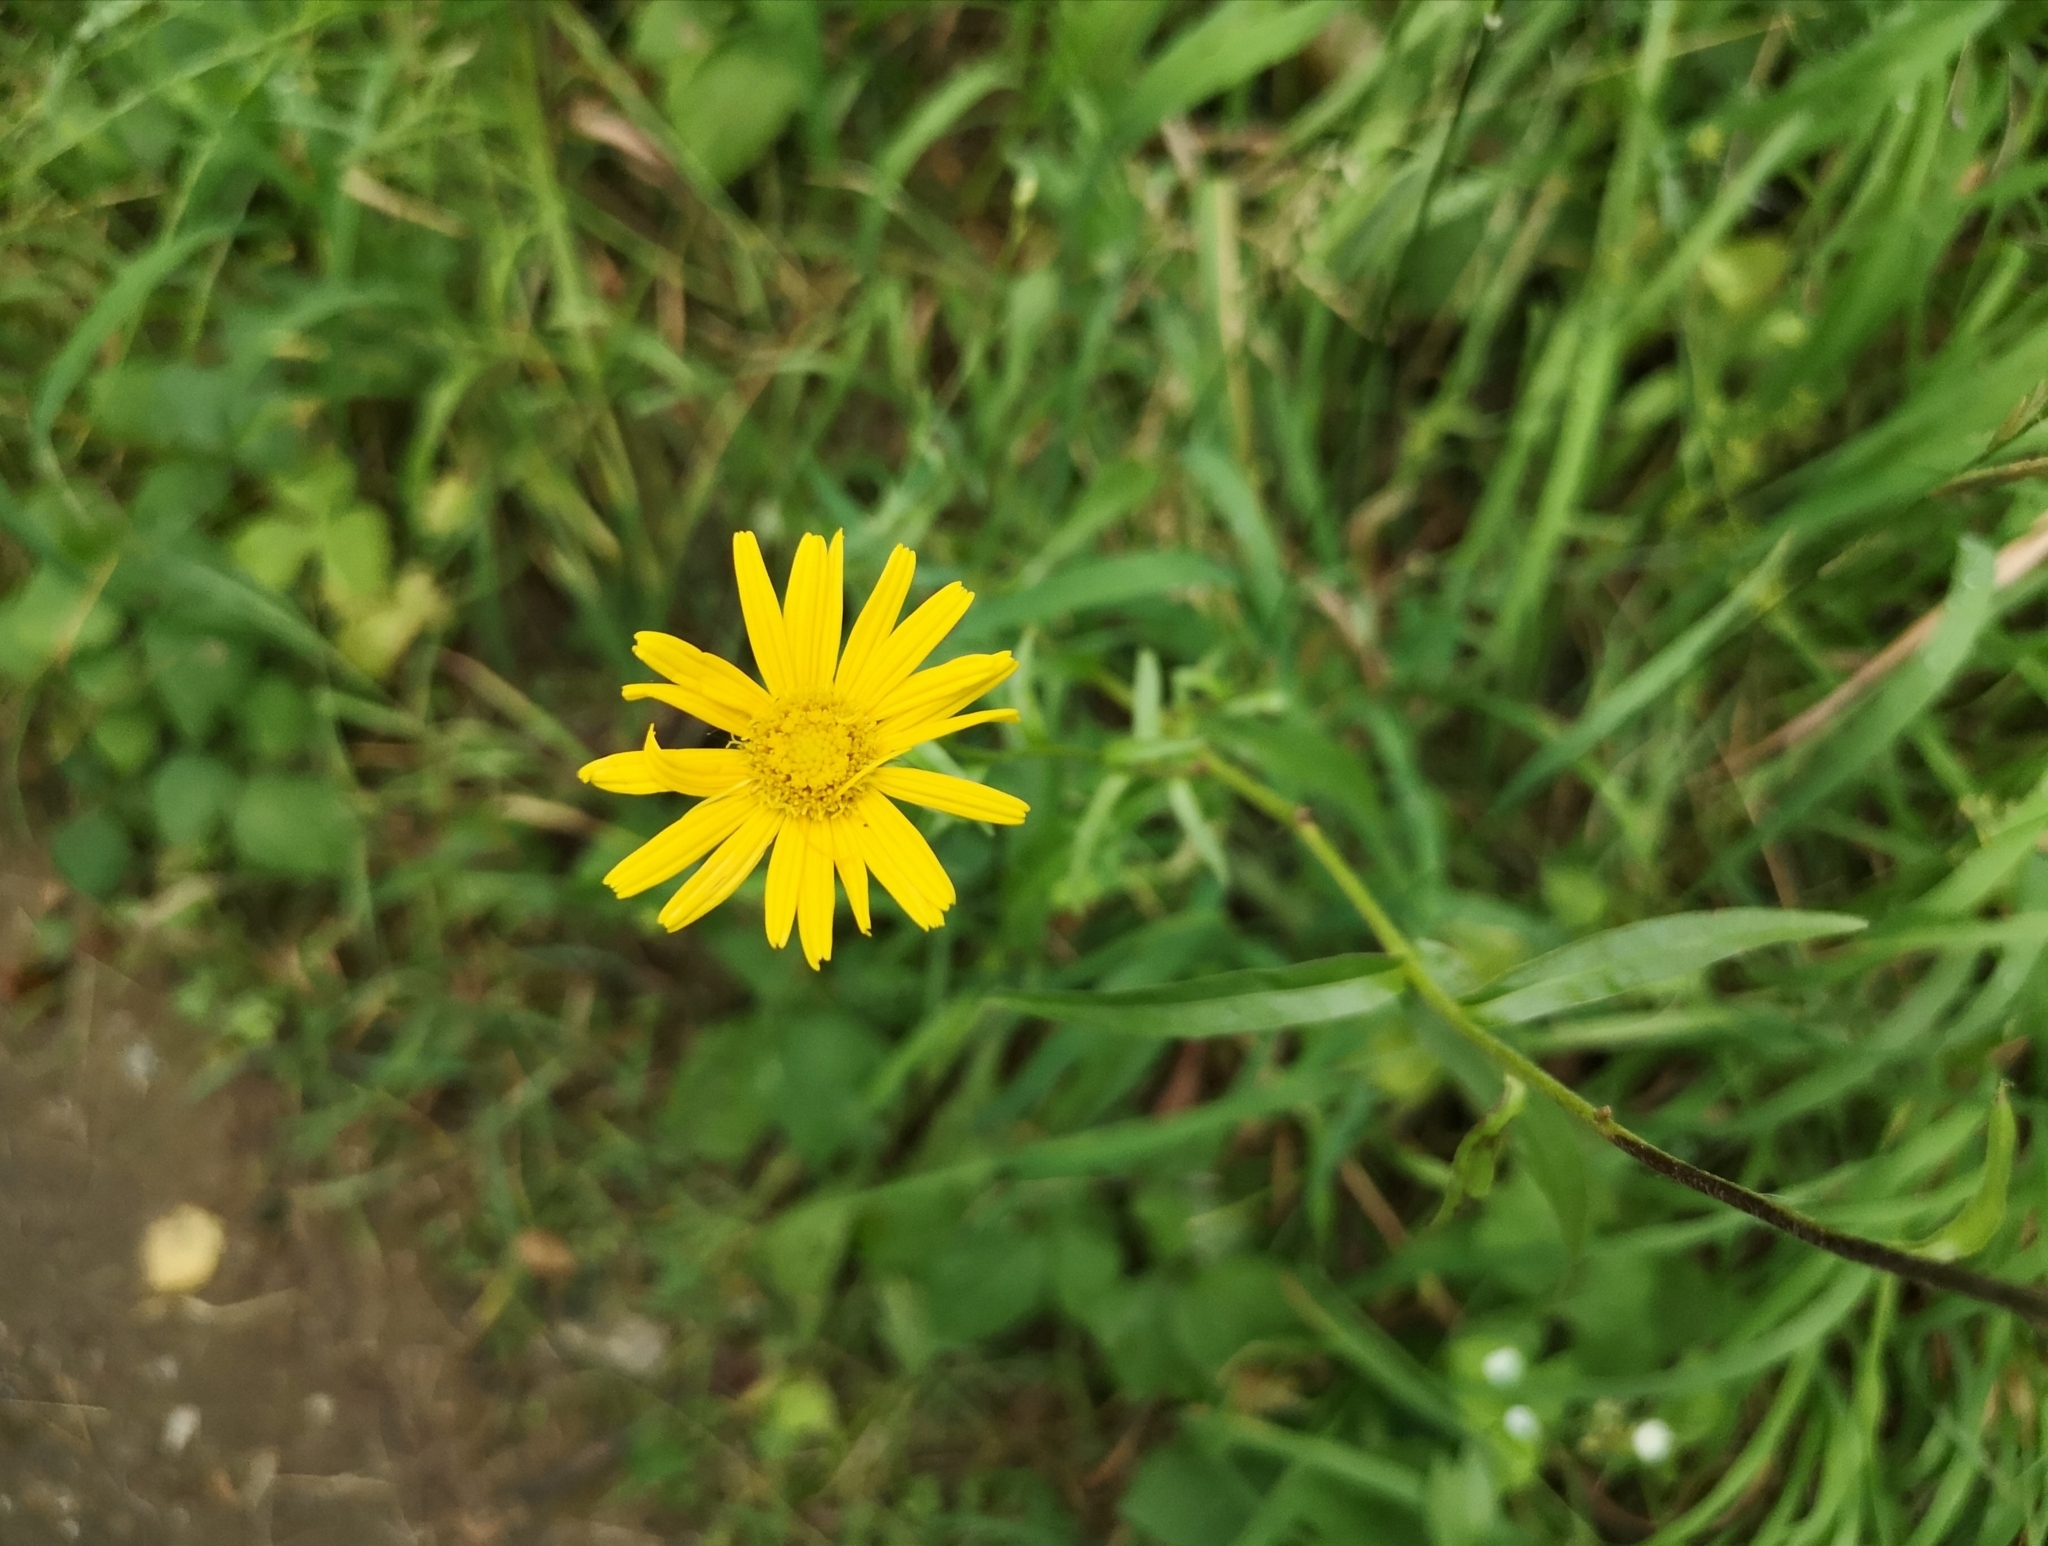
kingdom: Plantae
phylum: Tracheophyta
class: Magnoliopsida
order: Asterales
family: Asteraceae
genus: Buphthalmum
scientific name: Buphthalmum salicifolium
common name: Willow-leaved yellow-oxeye
